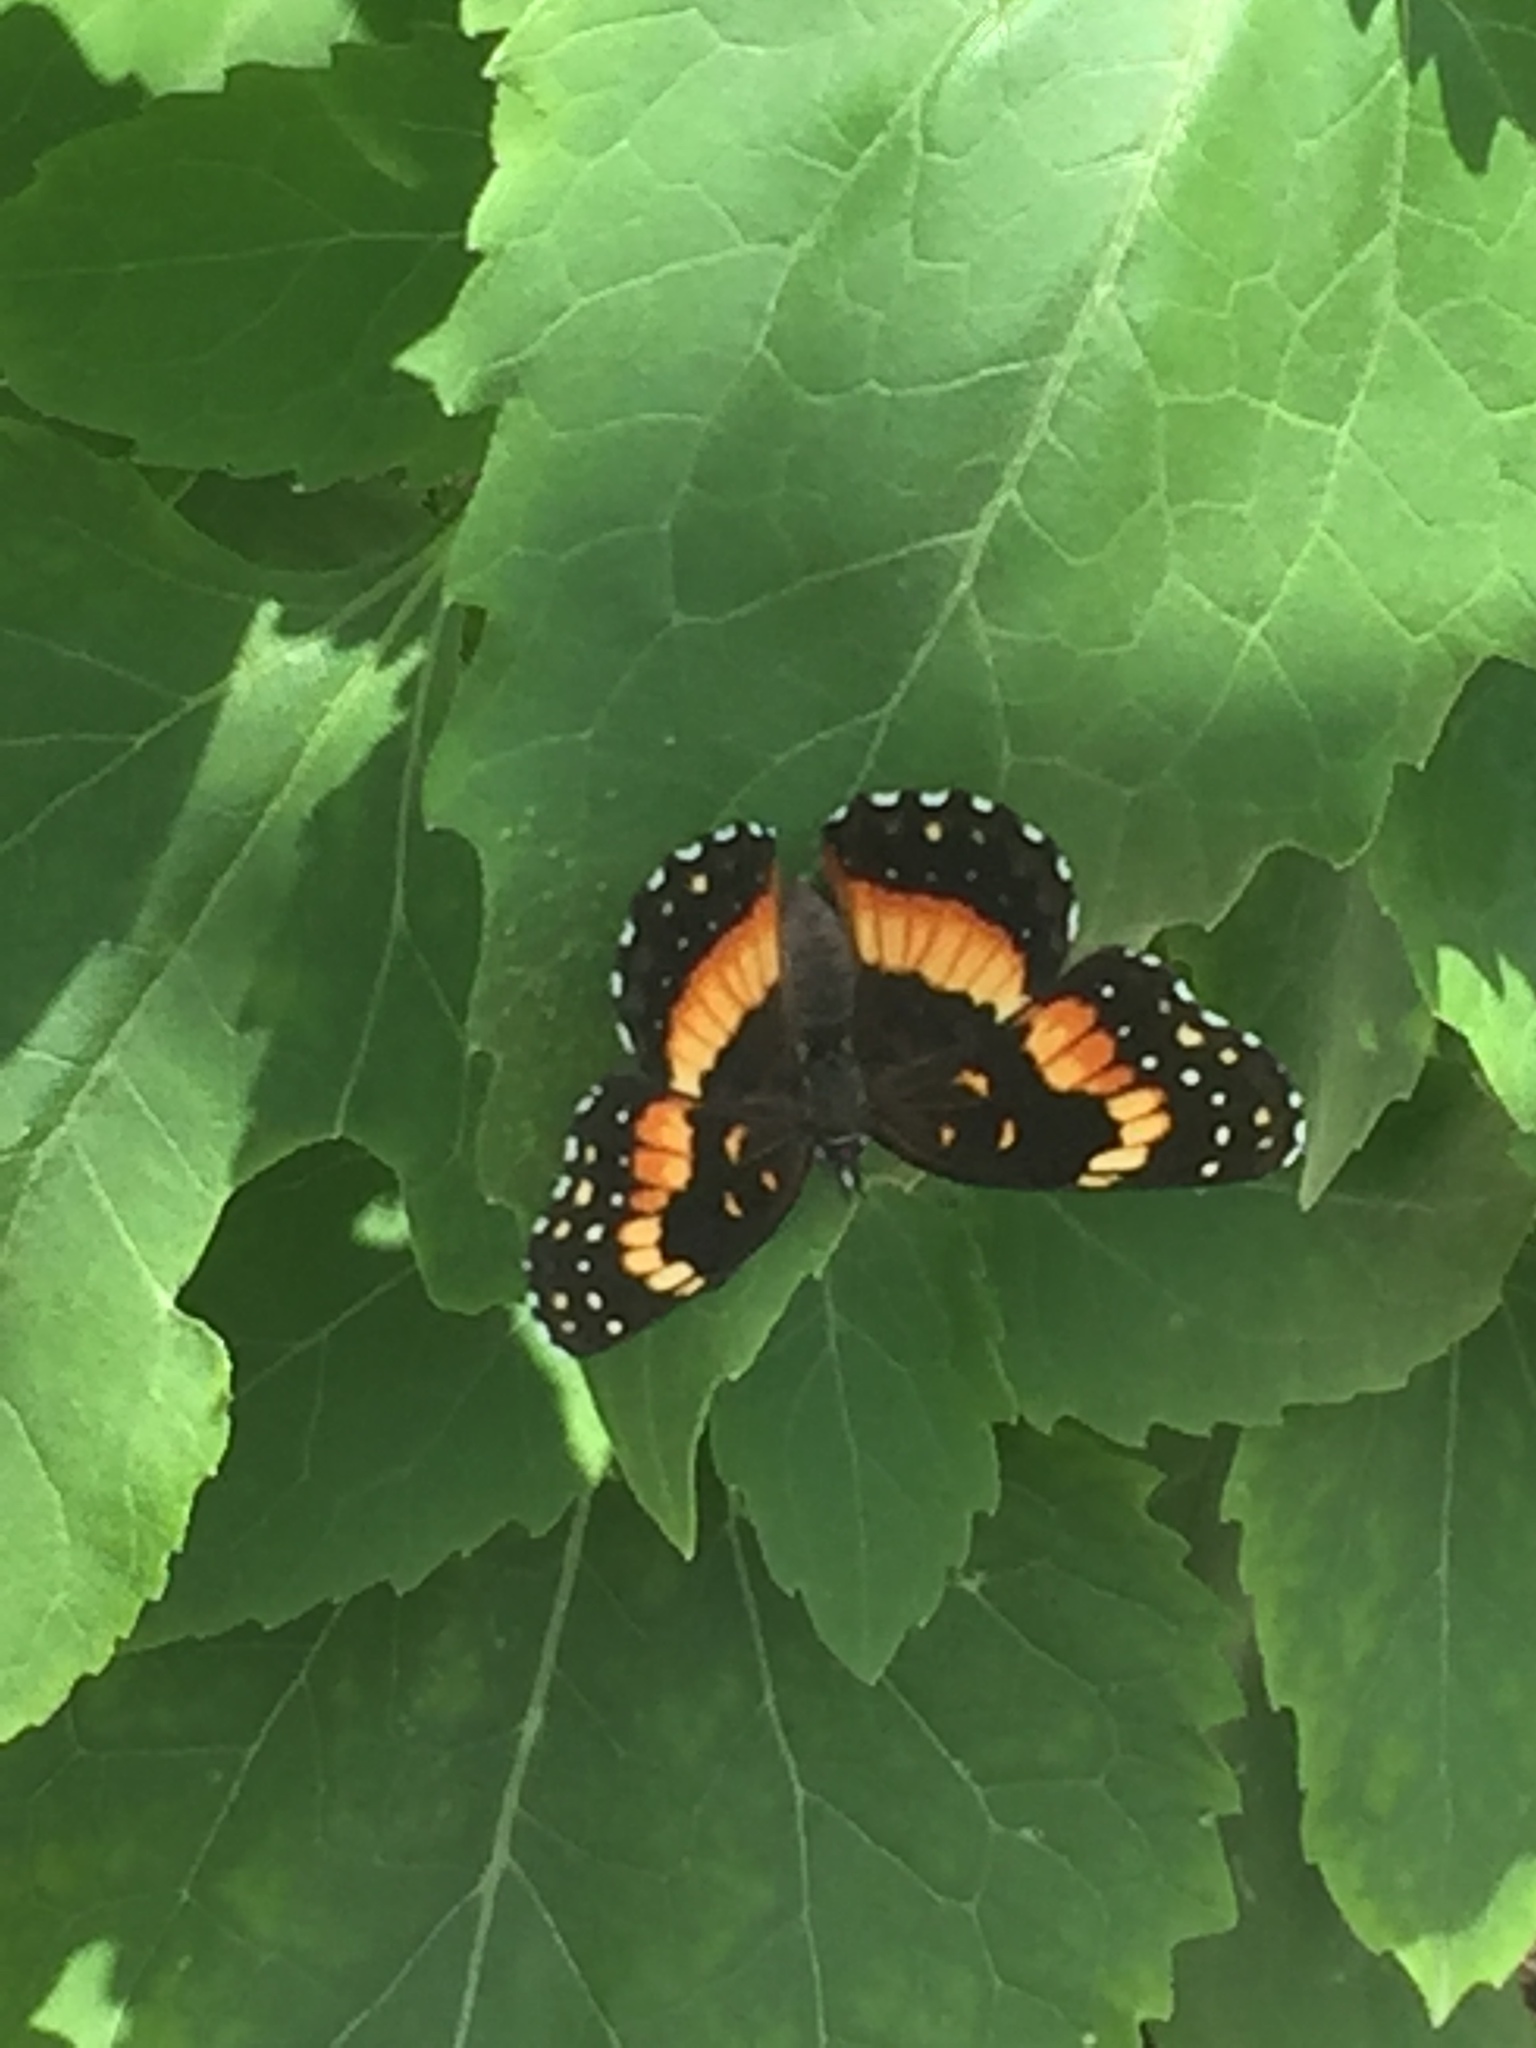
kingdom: Animalia
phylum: Arthropoda
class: Insecta
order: Lepidoptera
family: Nymphalidae
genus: Chlosyne
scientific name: Chlosyne lacinia
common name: Bordered patch
